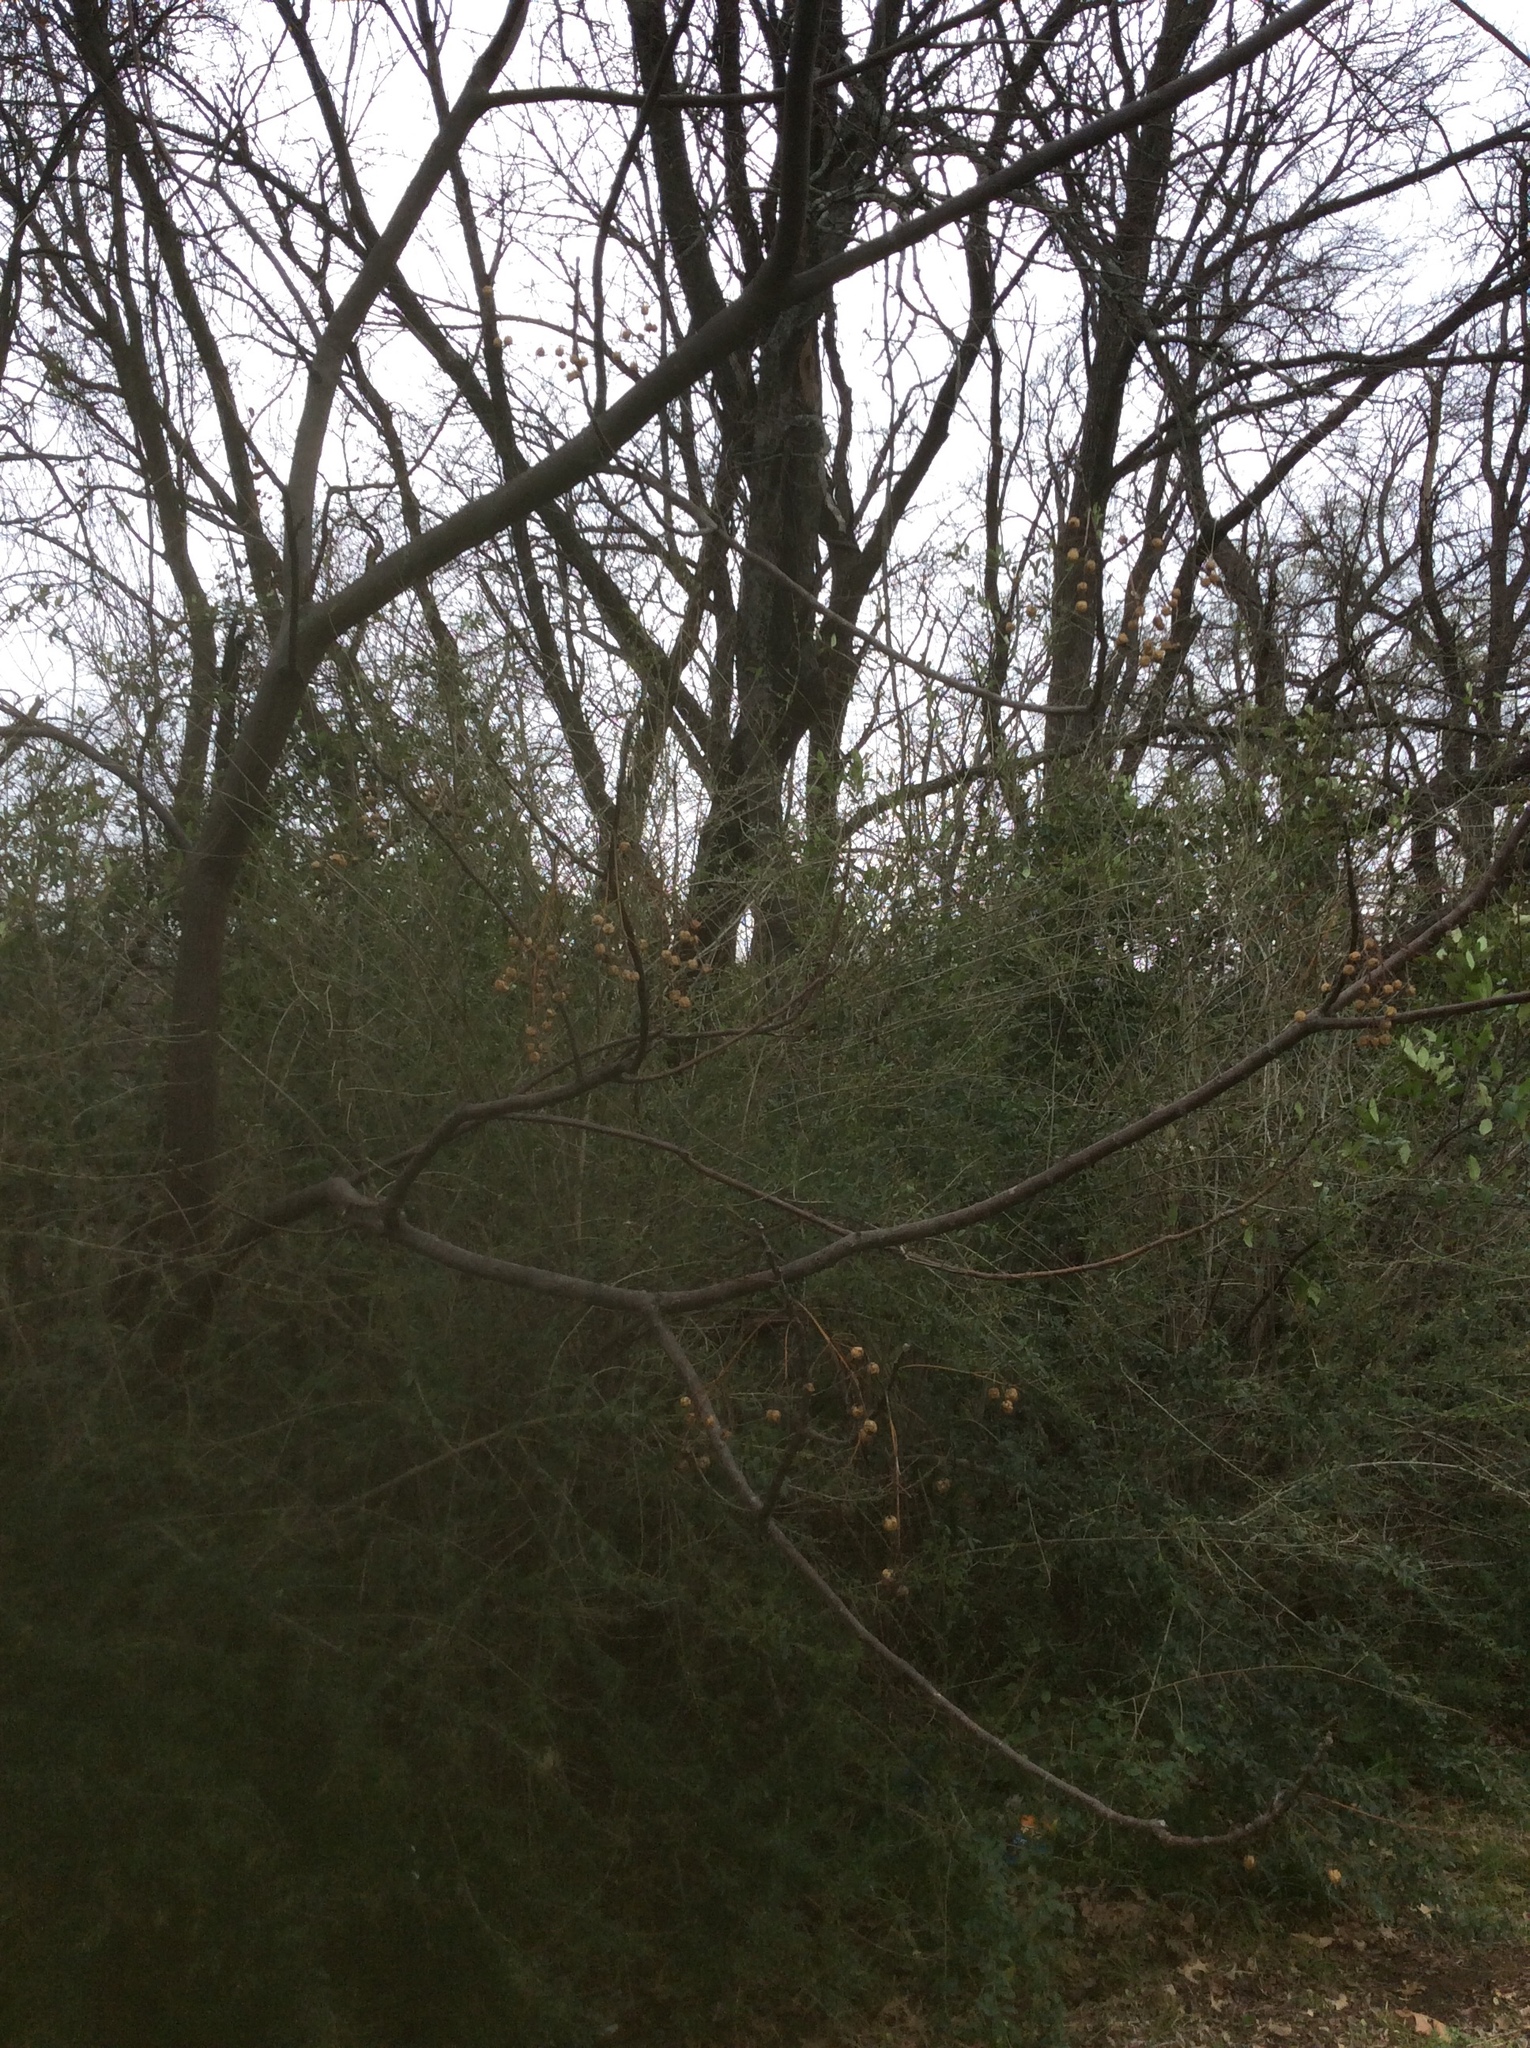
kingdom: Plantae
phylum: Tracheophyta
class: Magnoliopsida
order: Sapindales
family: Meliaceae
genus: Melia
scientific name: Melia azedarach
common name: Chinaberrytree
